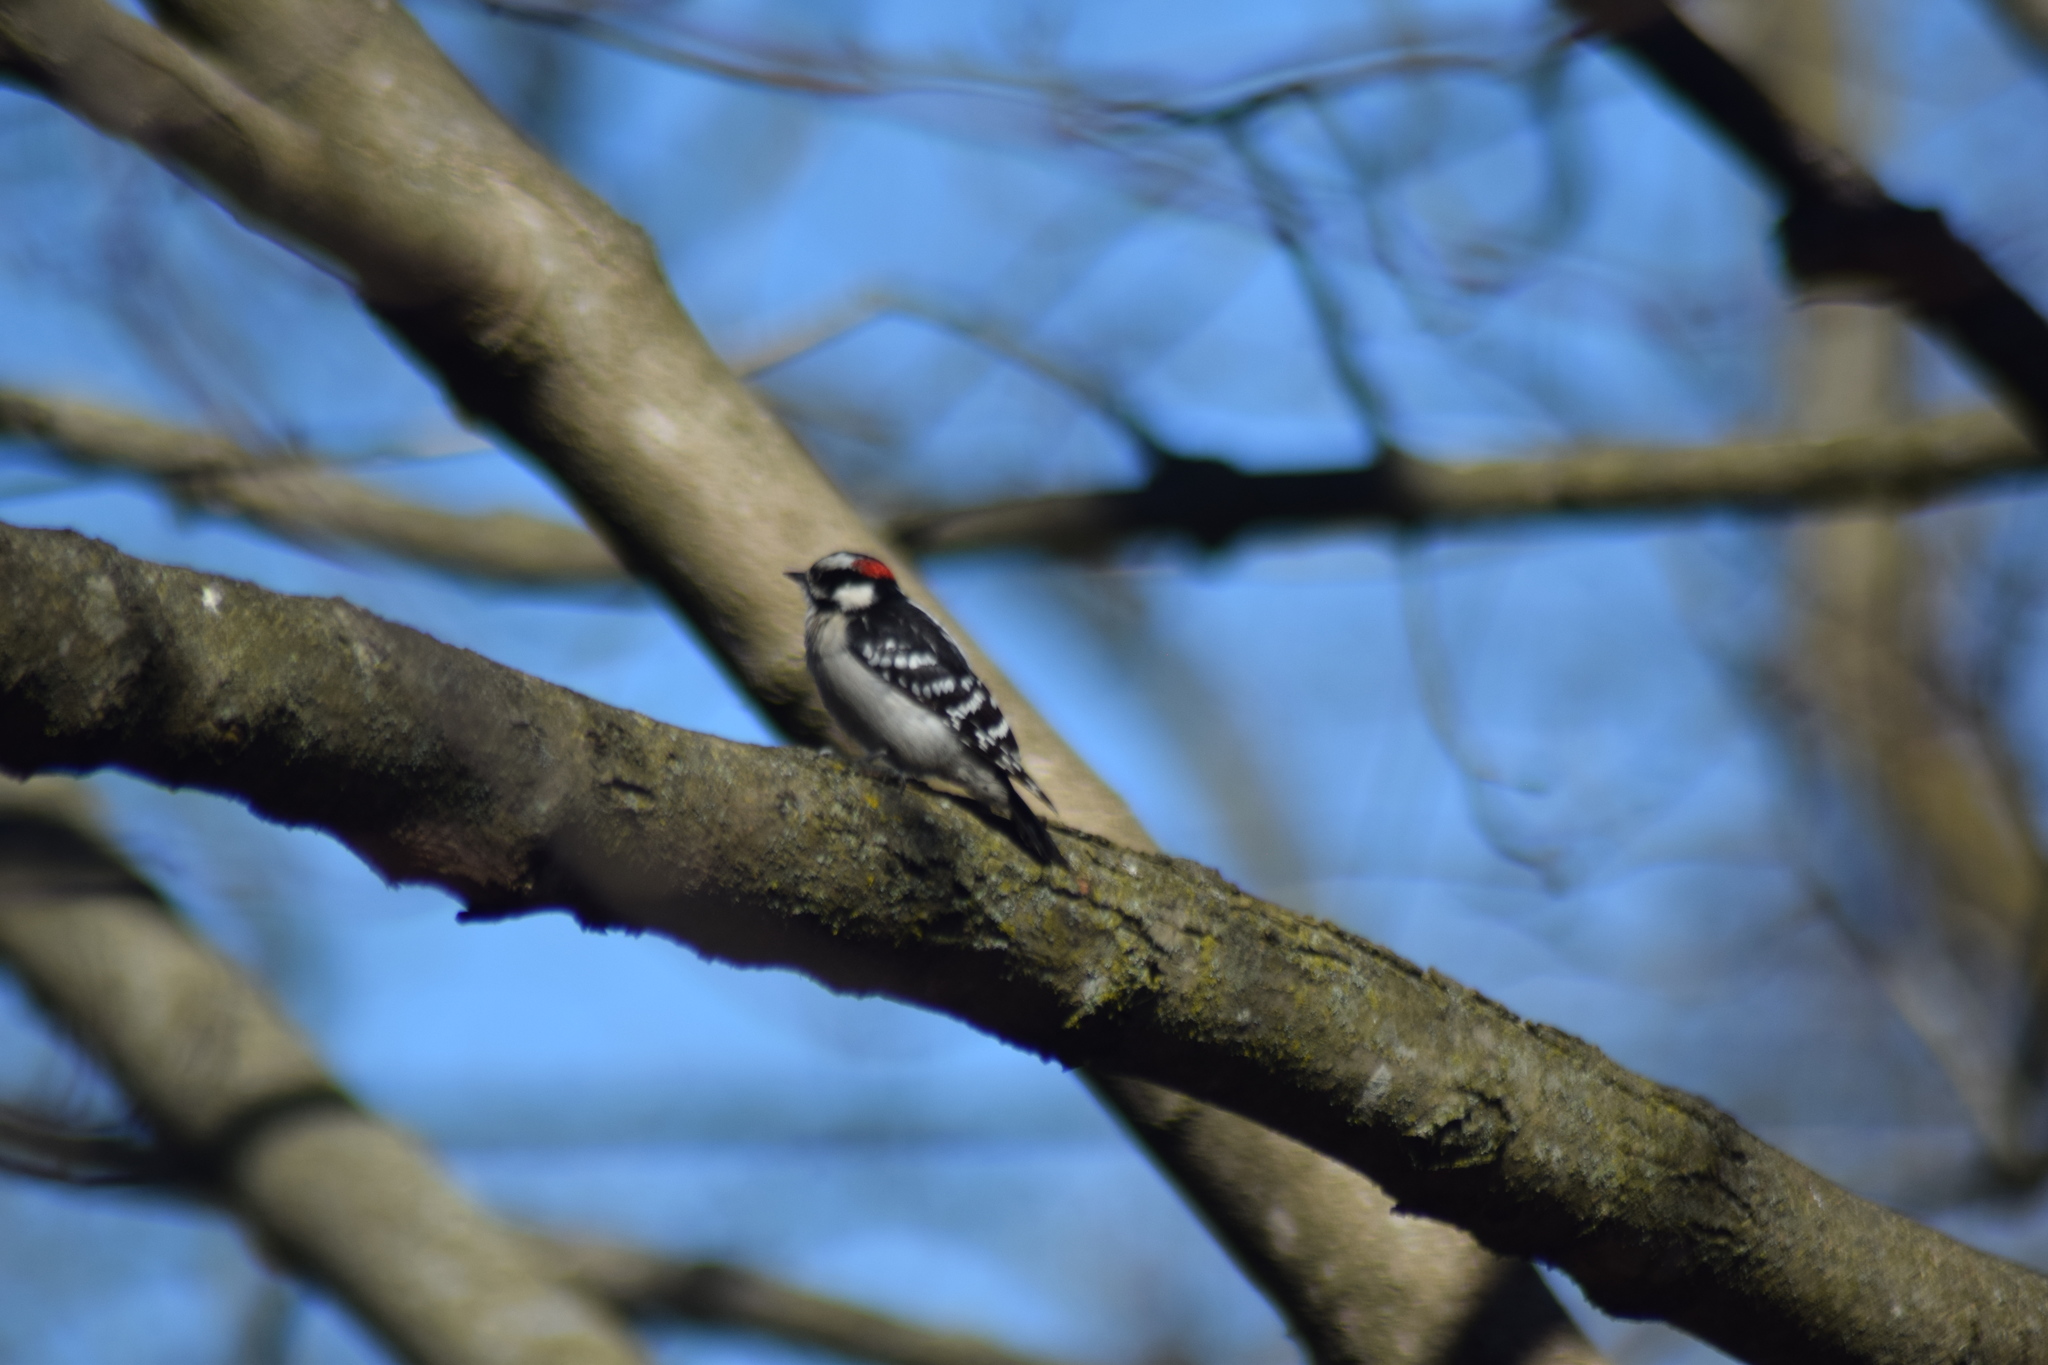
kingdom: Animalia
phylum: Chordata
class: Aves
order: Piciformes
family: Picidae
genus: Dryobates
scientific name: Dryobates pubescens
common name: Downy woodpecker
